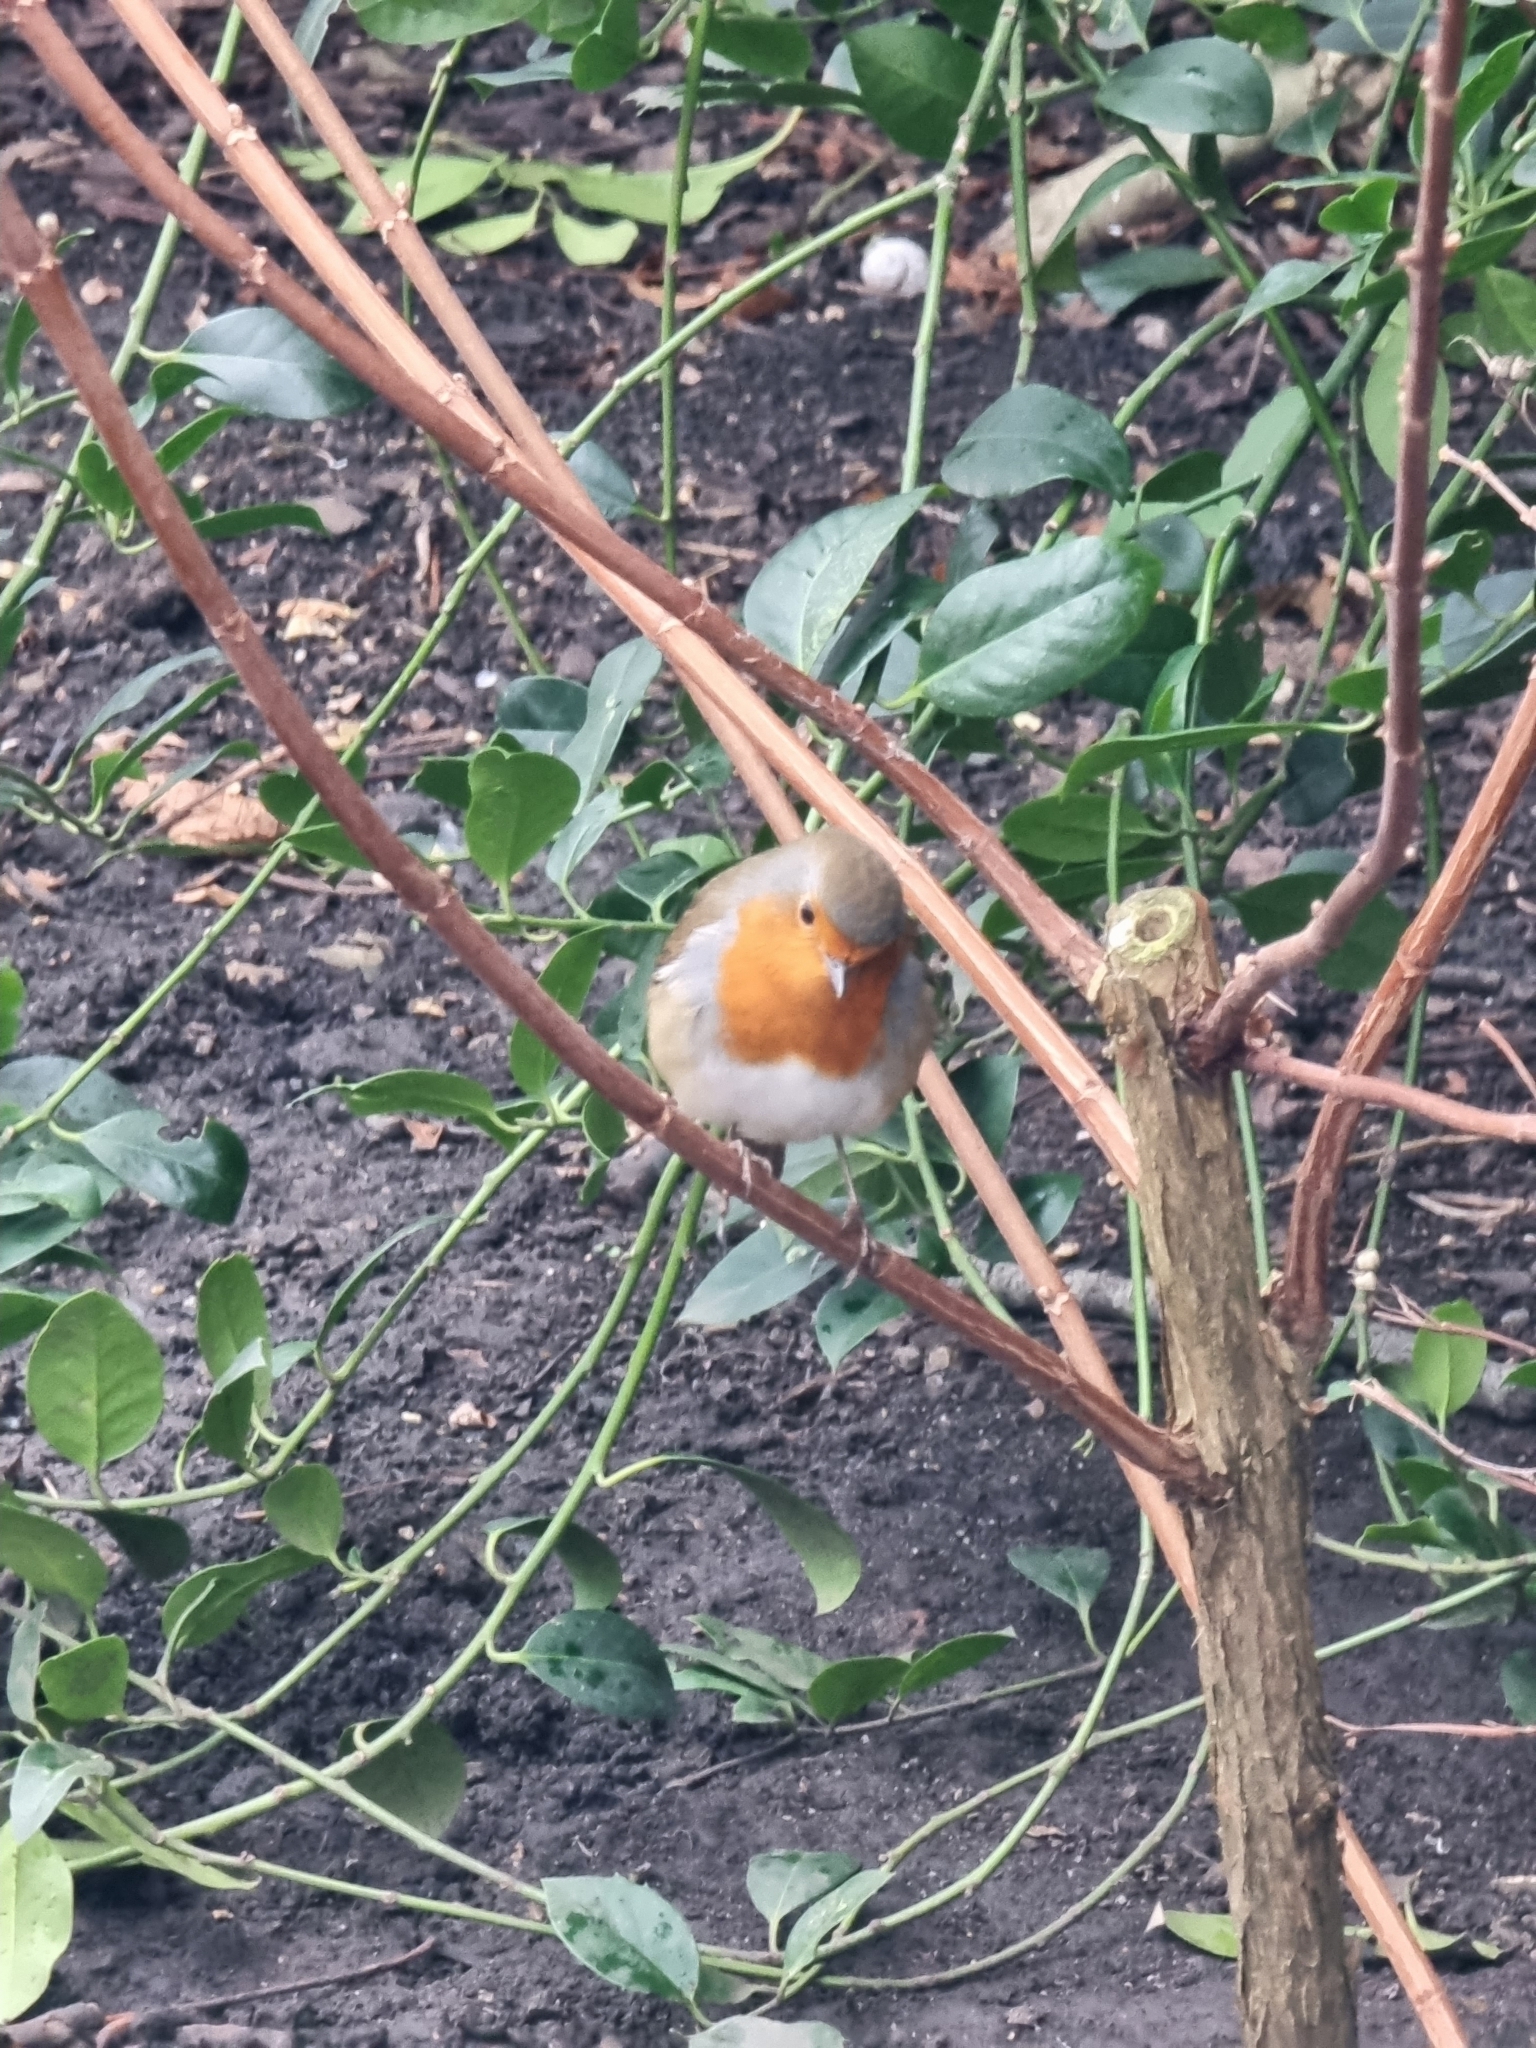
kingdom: Animalia
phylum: Chordata
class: Aves
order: Passeriformes
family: Muscicapidae
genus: Erithacus
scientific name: Erithacus rubecula
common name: European robin
